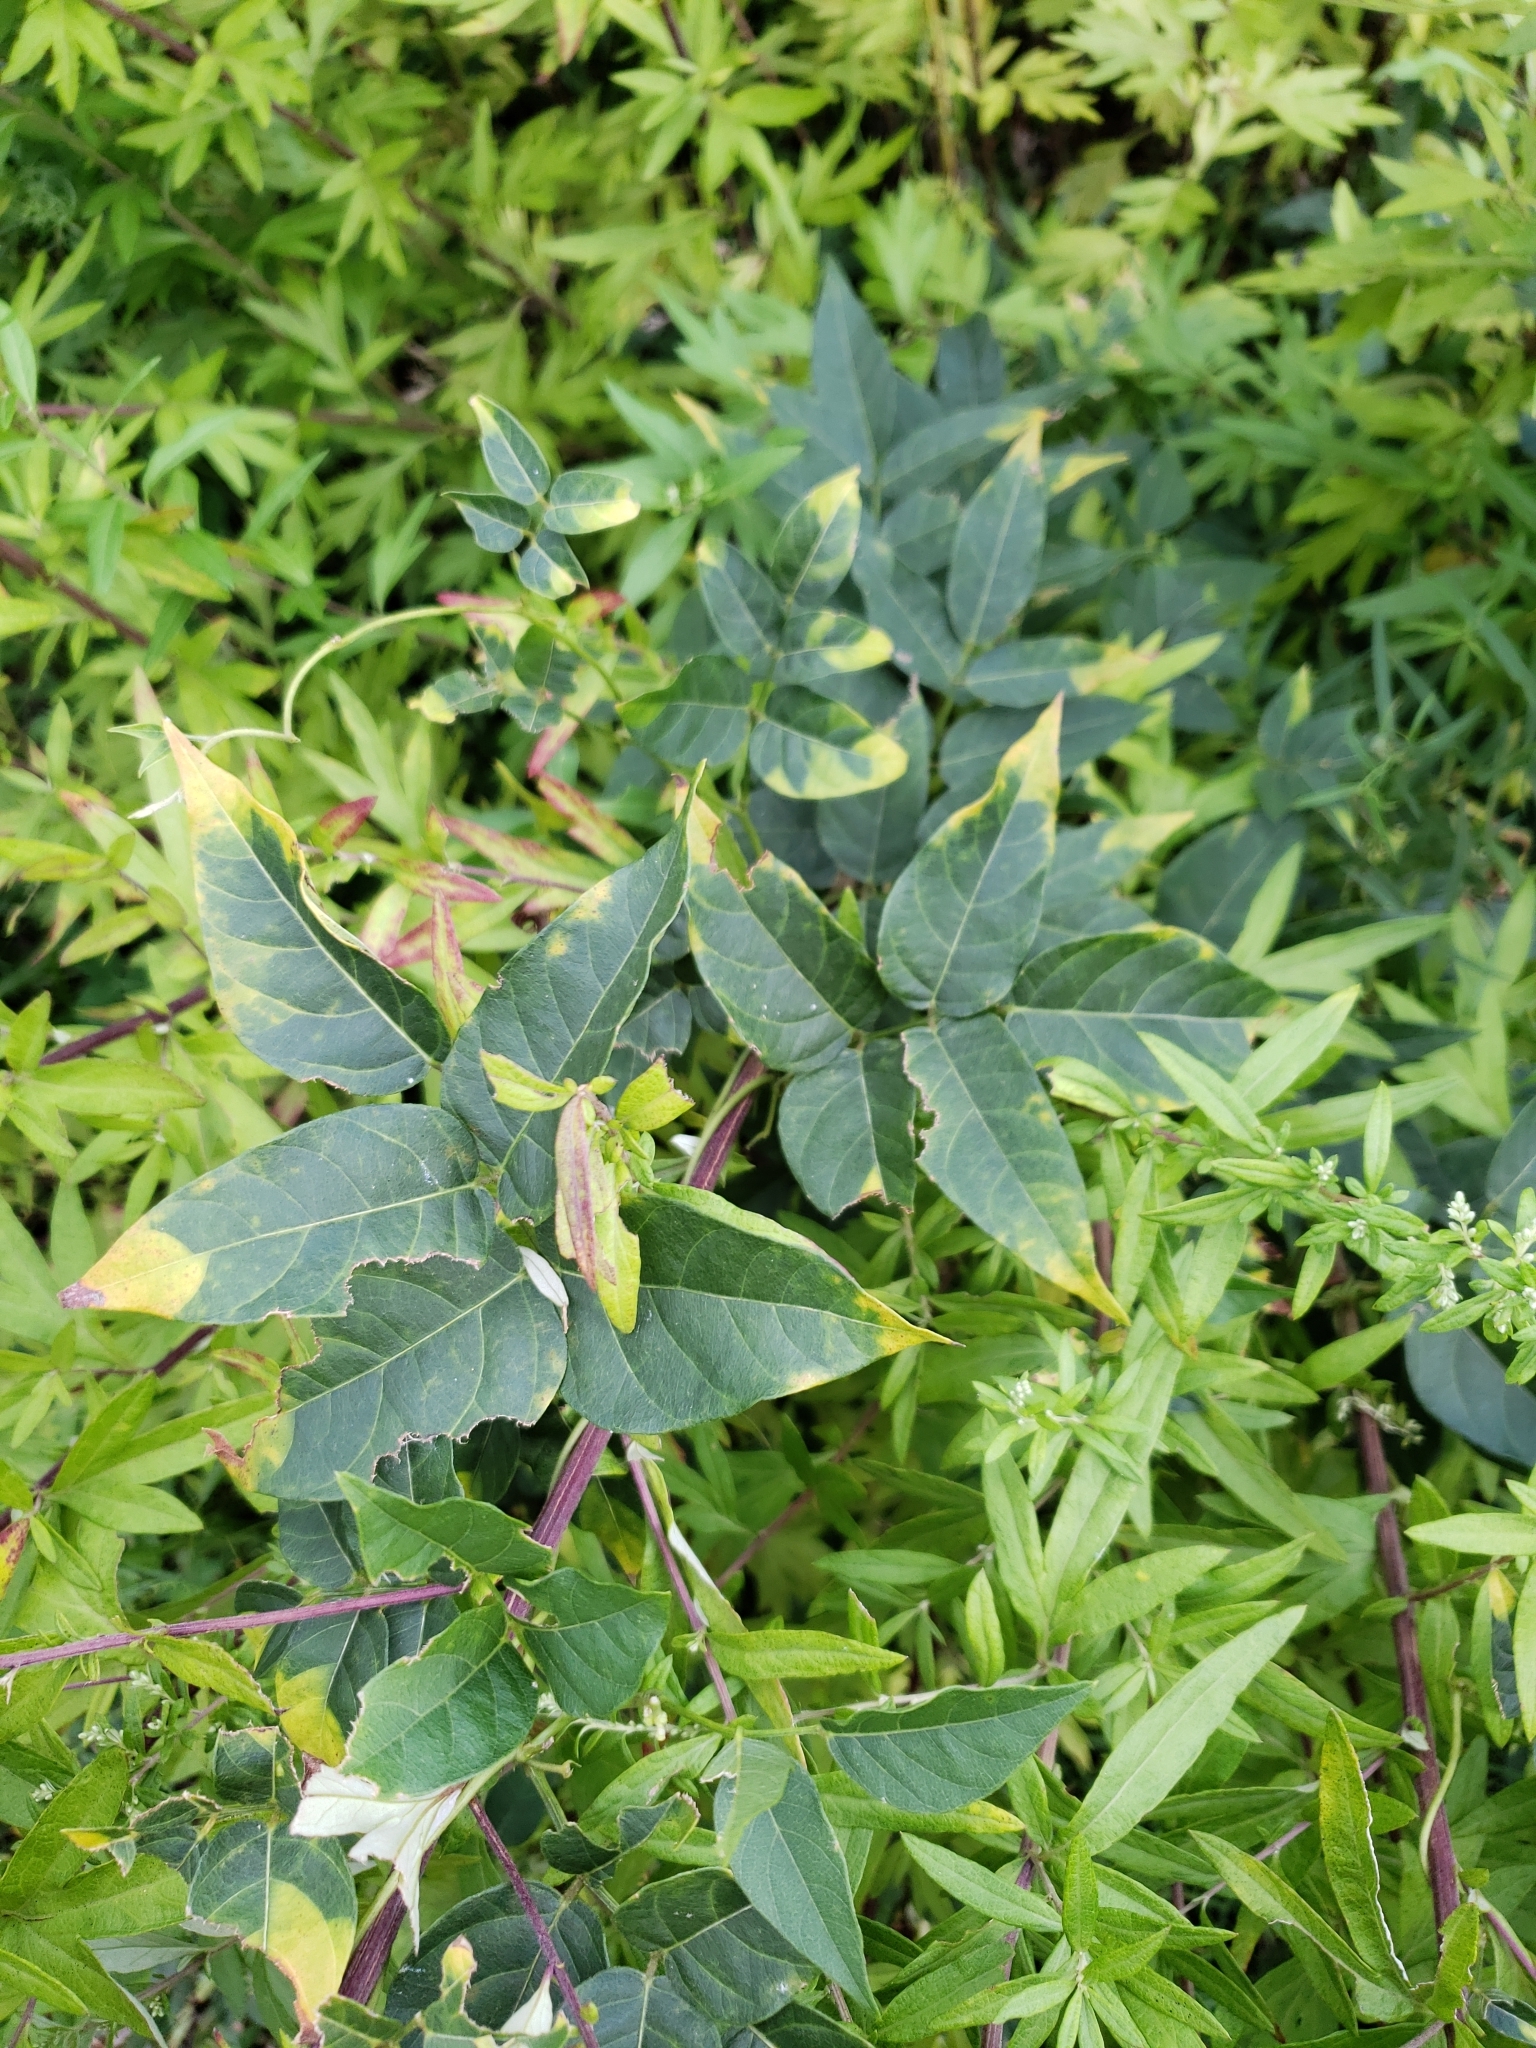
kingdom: Plantae
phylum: Tracheophyta
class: Magnoliopsida
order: Fabales
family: Fabaceae
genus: Apios
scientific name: Apios americana
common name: American potato-bean
